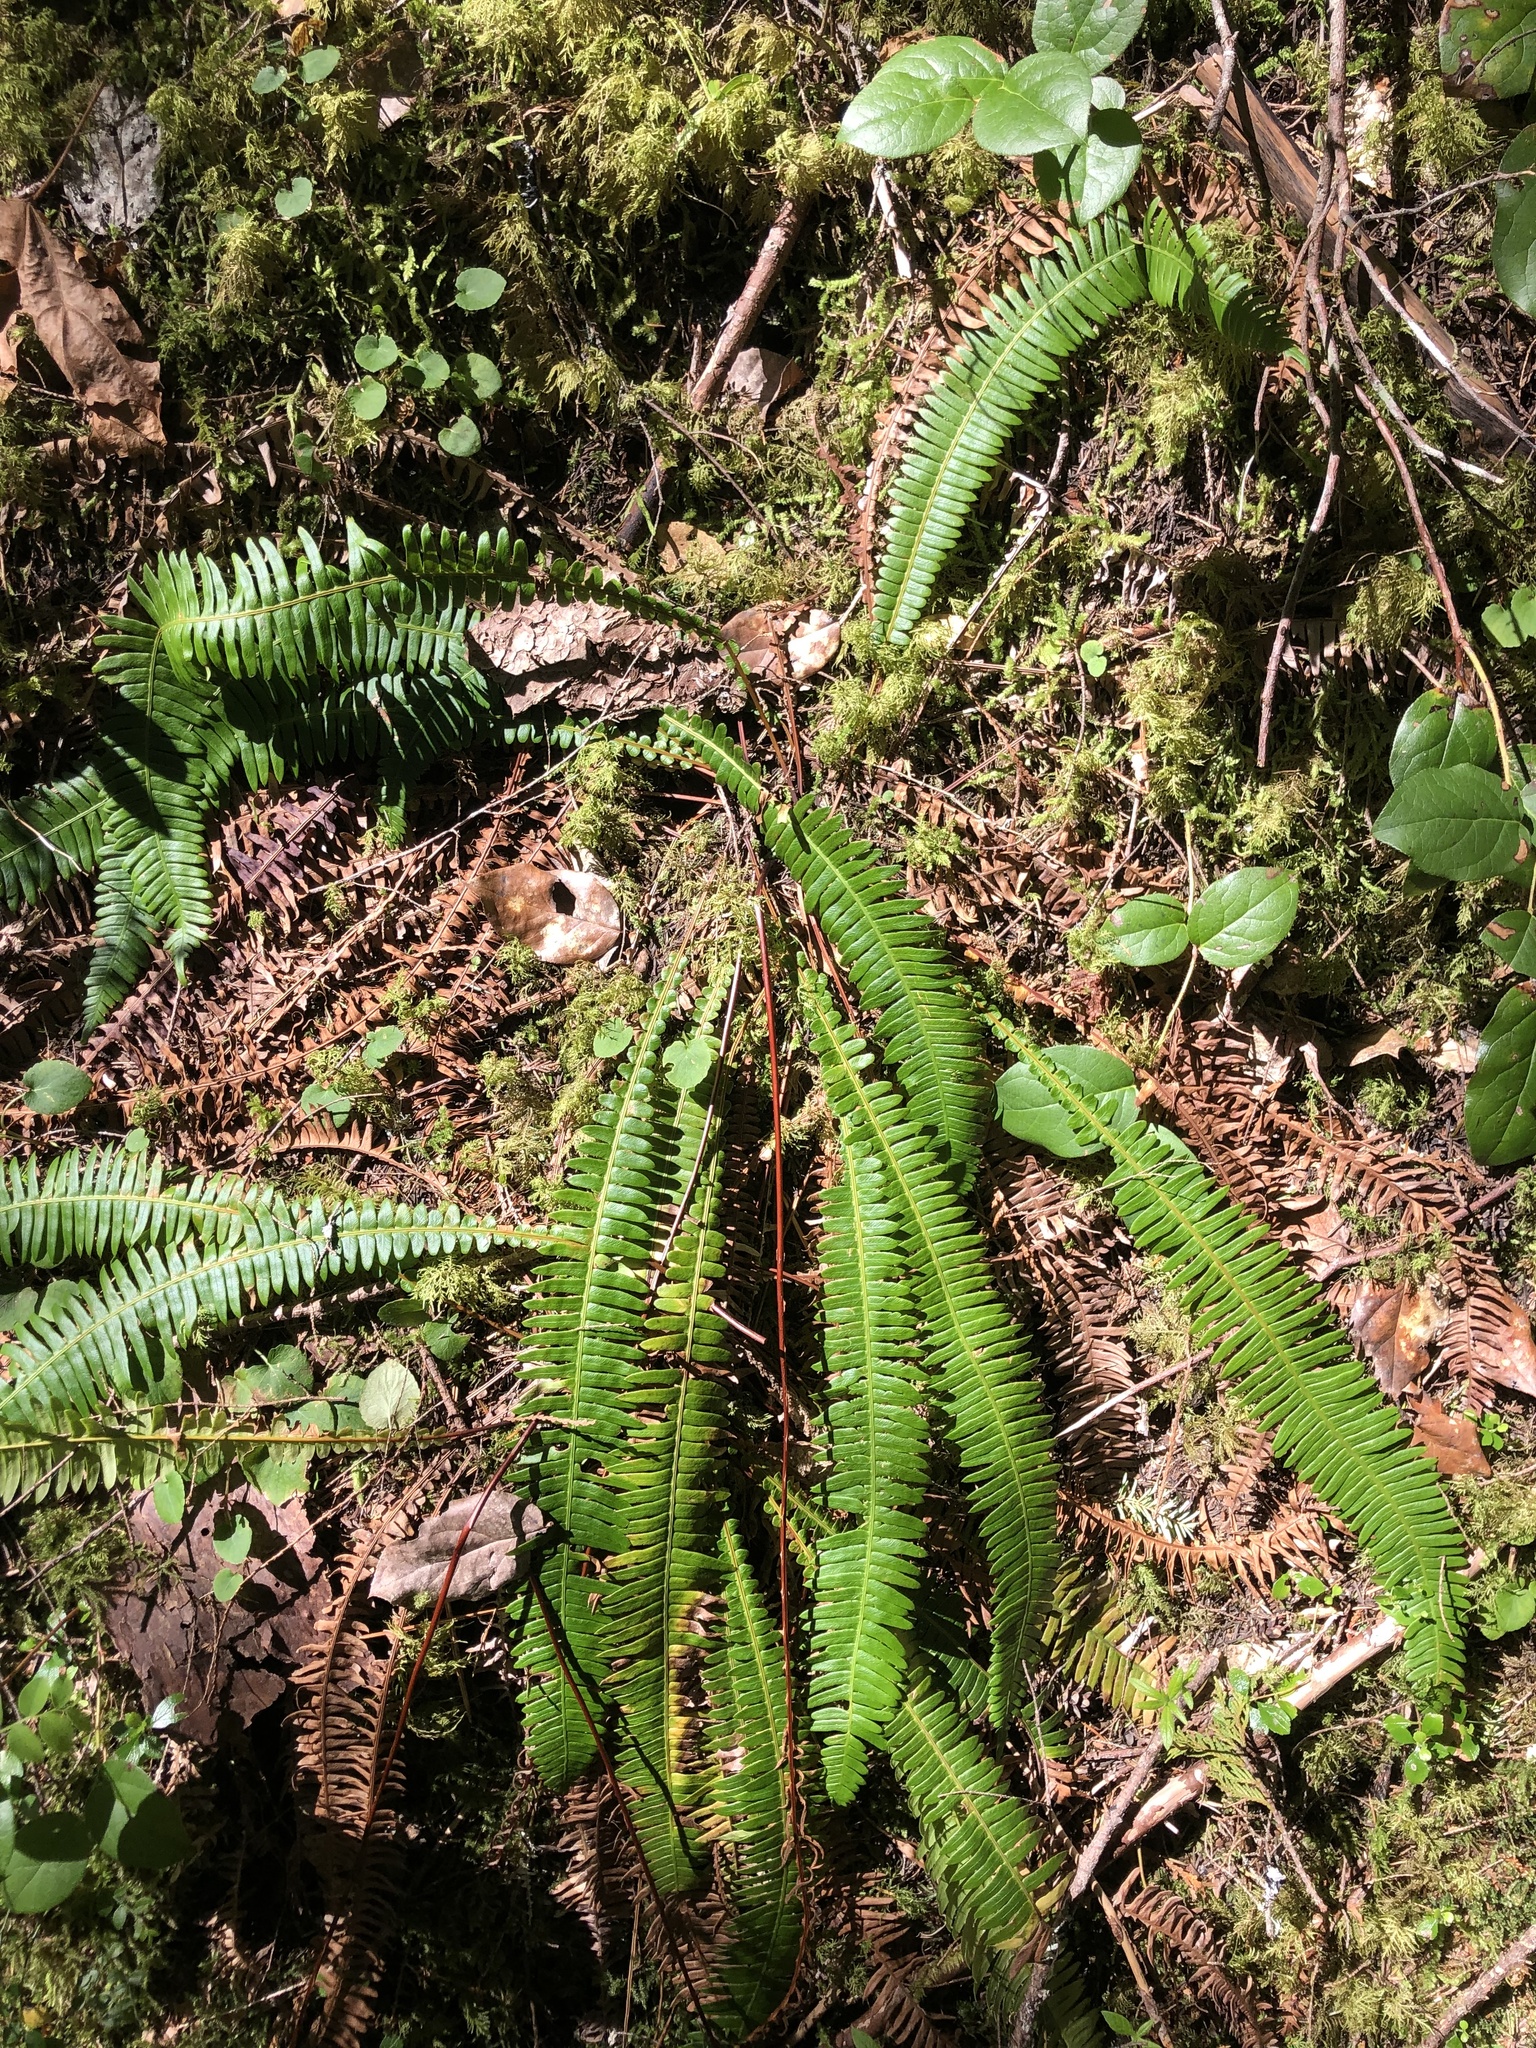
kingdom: Plantae
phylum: Tracheophyta
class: Polypodiopsida
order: Polypodiales
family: Blechnaceae
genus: Struthiopteris
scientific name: Struthiopteris spicant
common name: Deer fern
